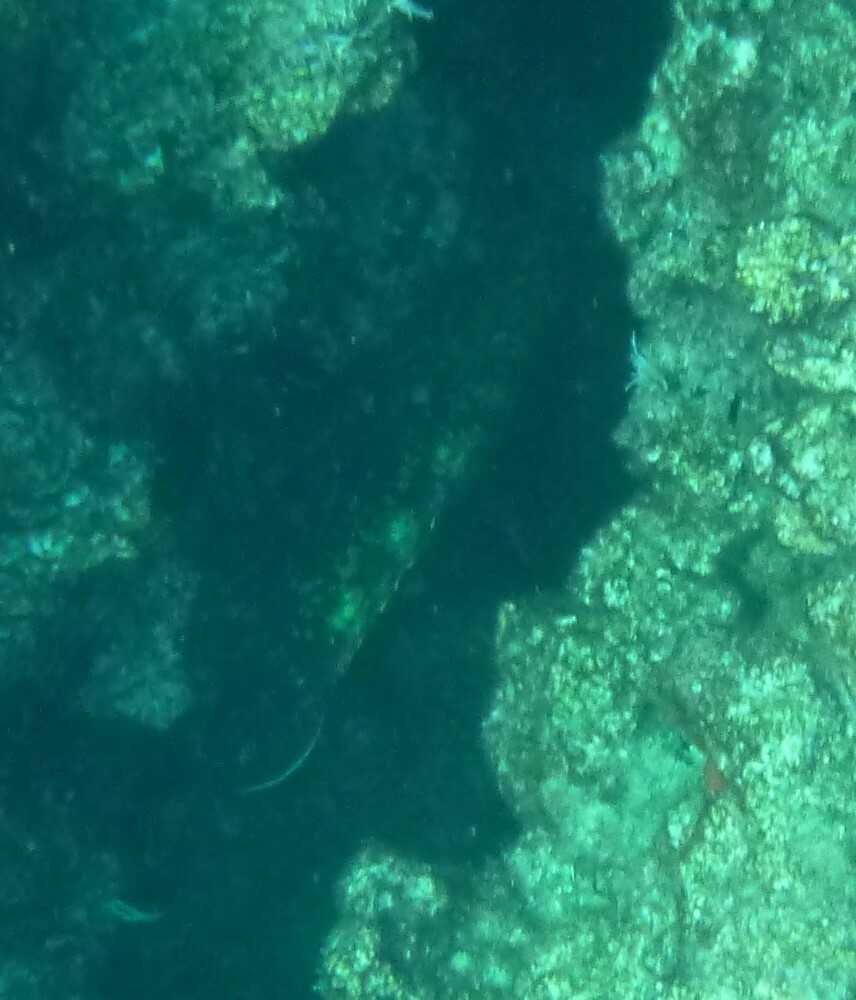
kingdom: Animalia
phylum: Chordata
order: Perciformes
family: Serranidae
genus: Epinephelus
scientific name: Epinephelus marginatus
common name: Dusky grouper
